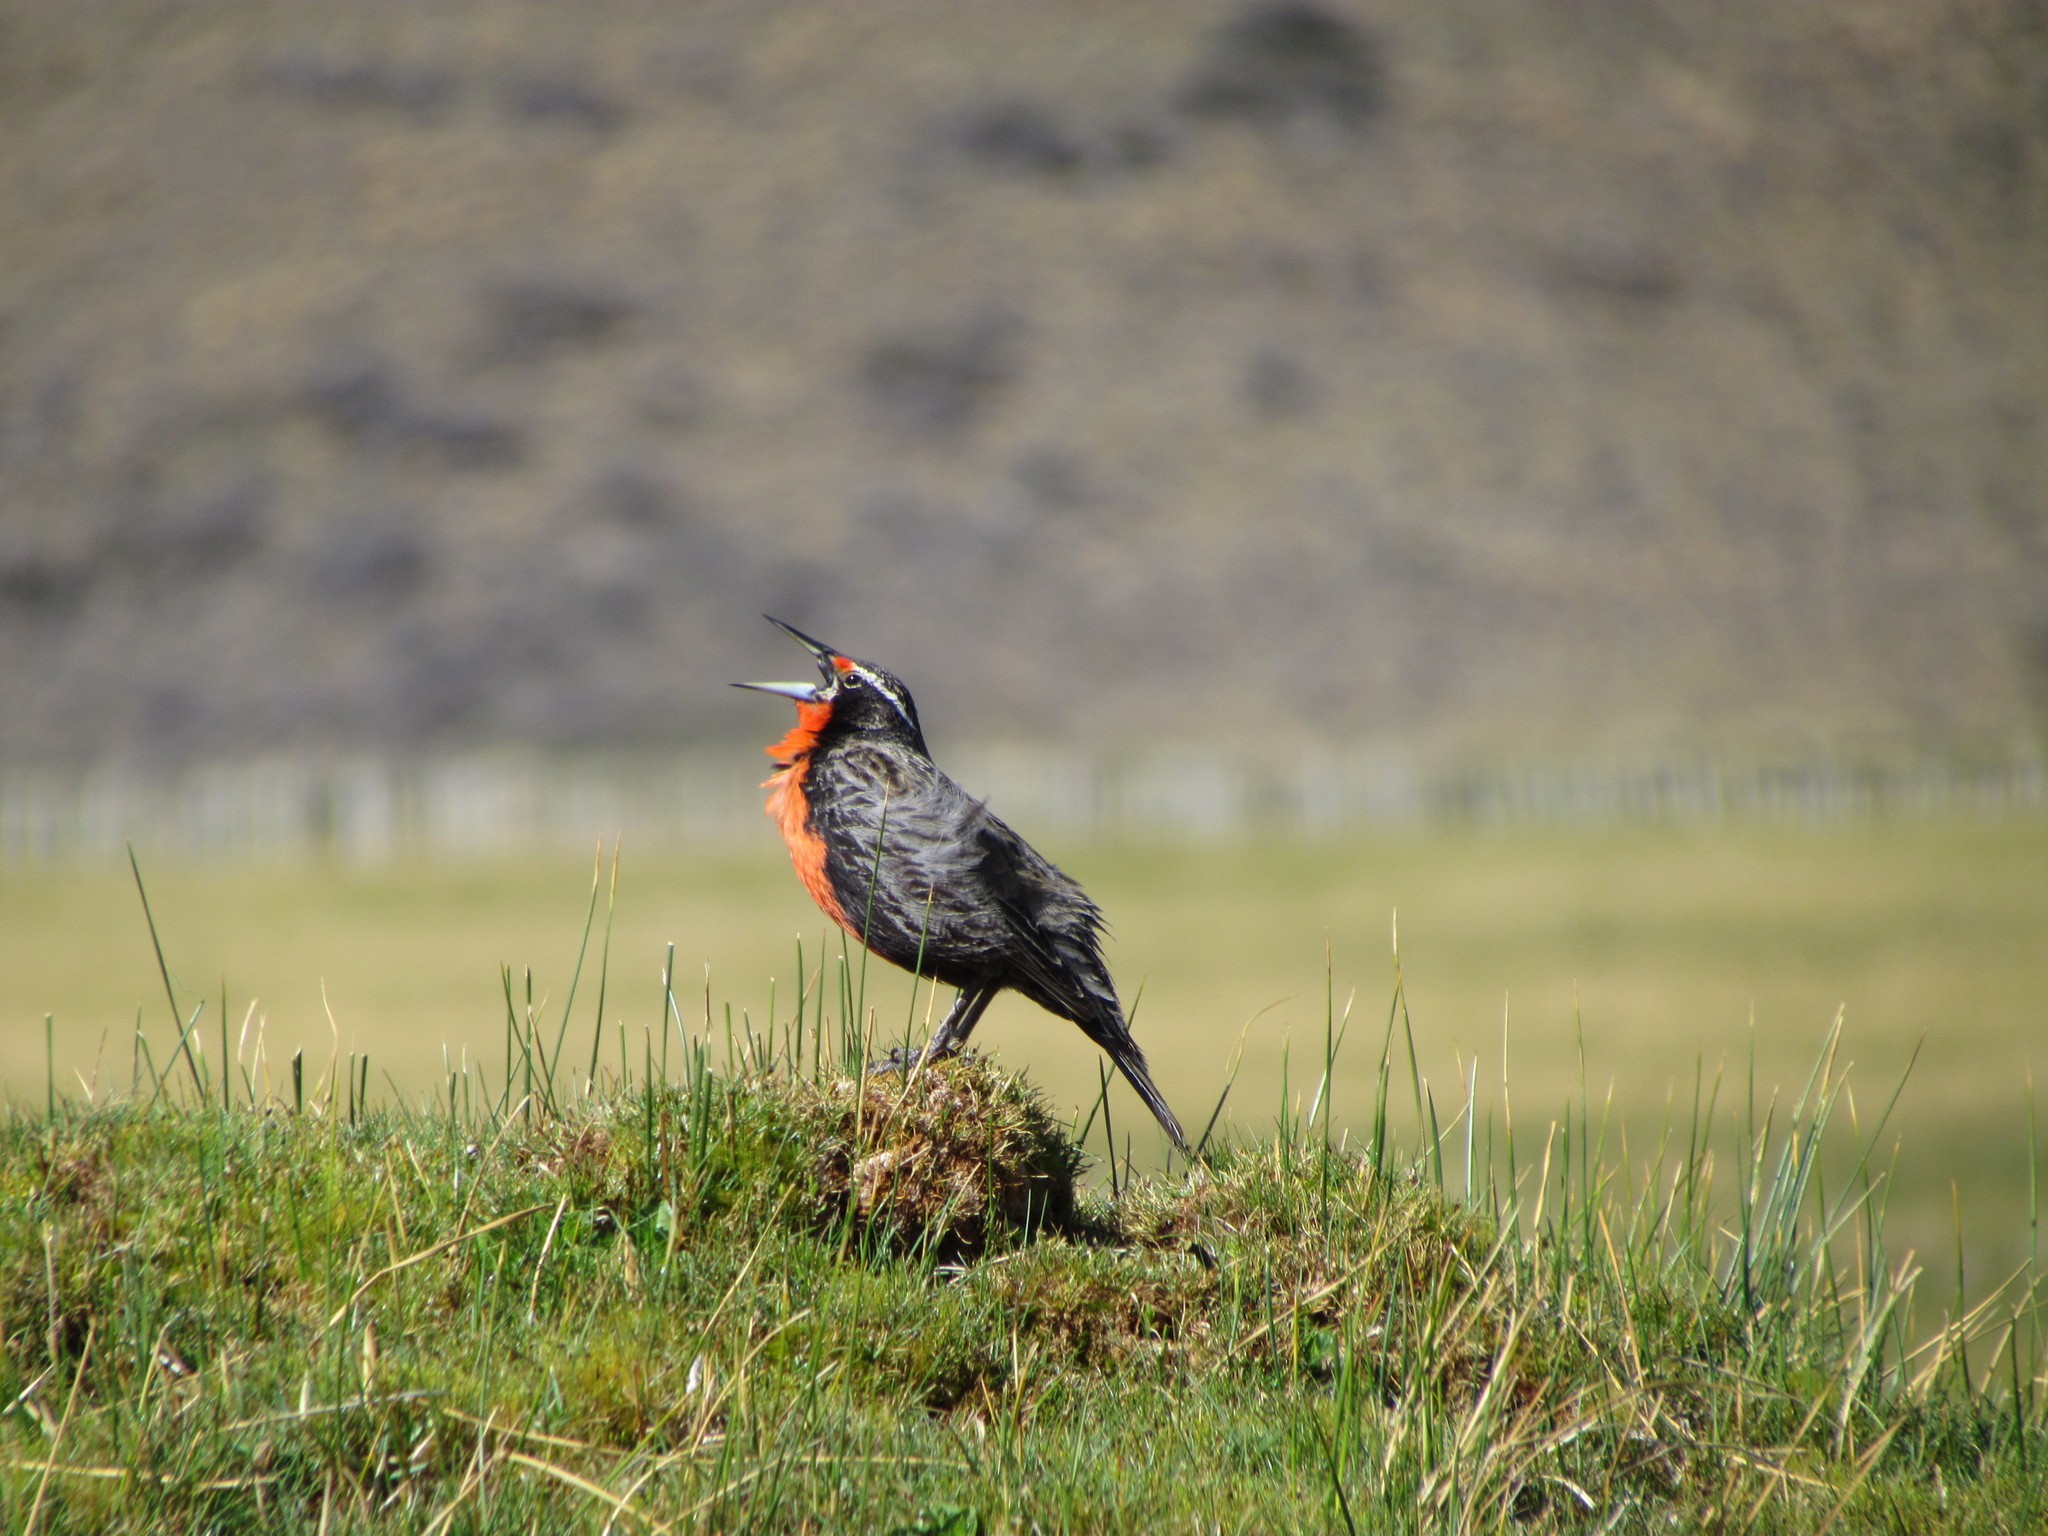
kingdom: Animalia
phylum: Chordata
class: Aves
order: Passeriformes
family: Icteridae
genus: Sturnella
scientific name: Sturnella loyca
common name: Long-tailed meadowlark
